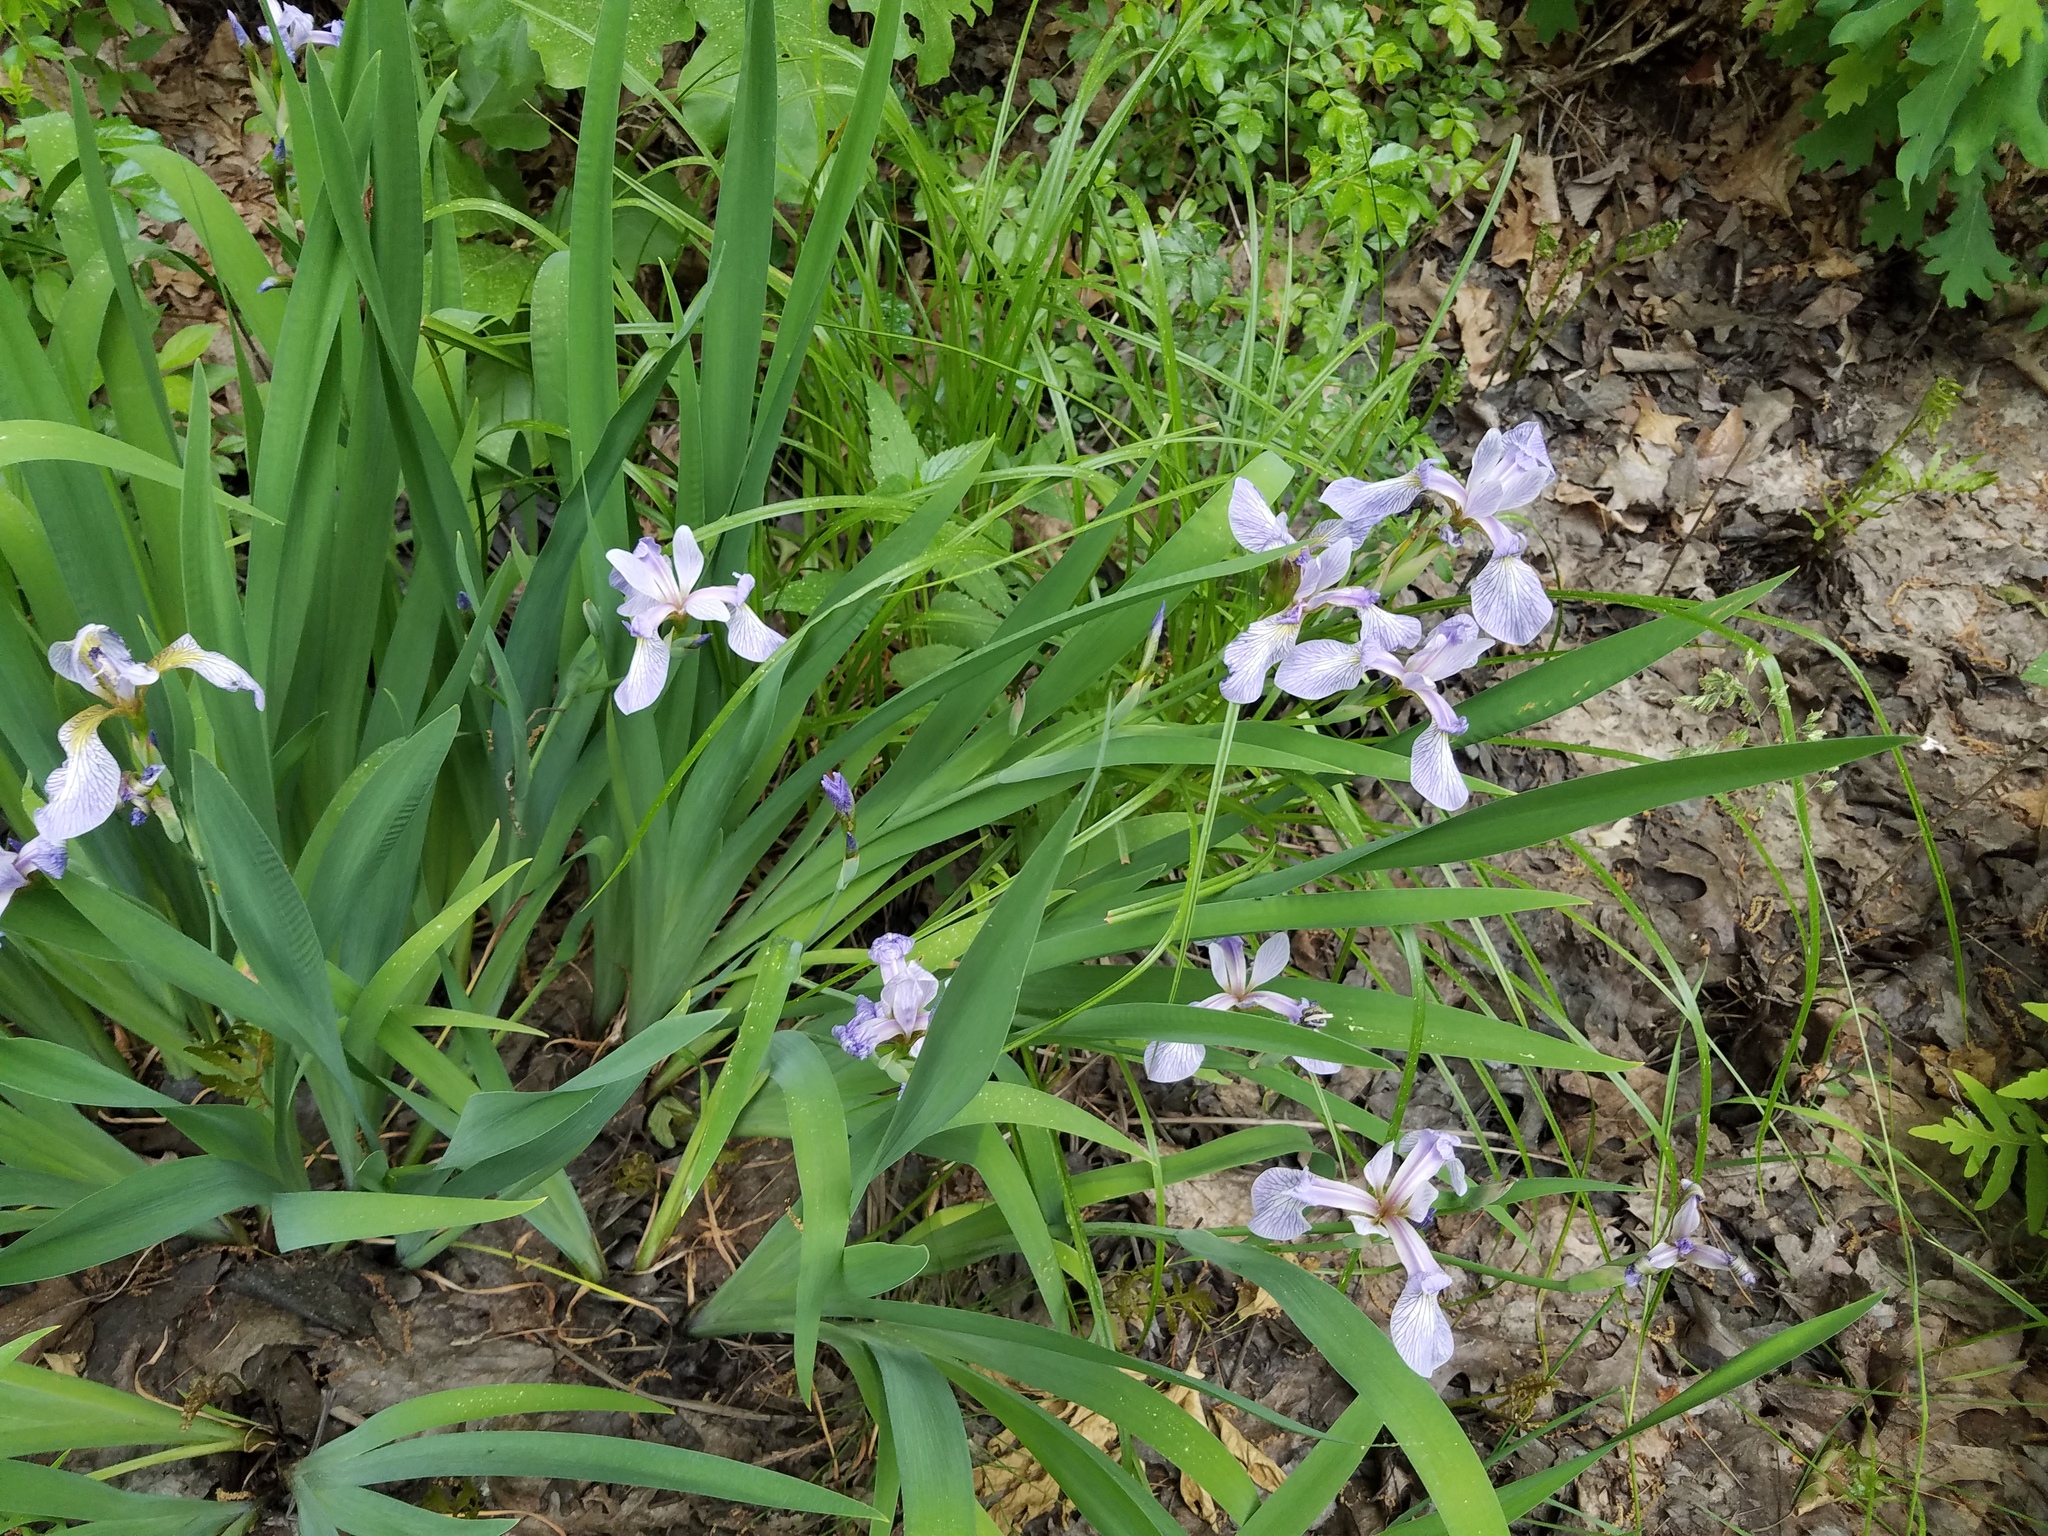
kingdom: Plantae
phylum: Tracheophyta
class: Liliopsida
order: Asparagales
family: Iridaceae
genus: Iris
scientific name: Iris versicolor
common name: Purple iris
